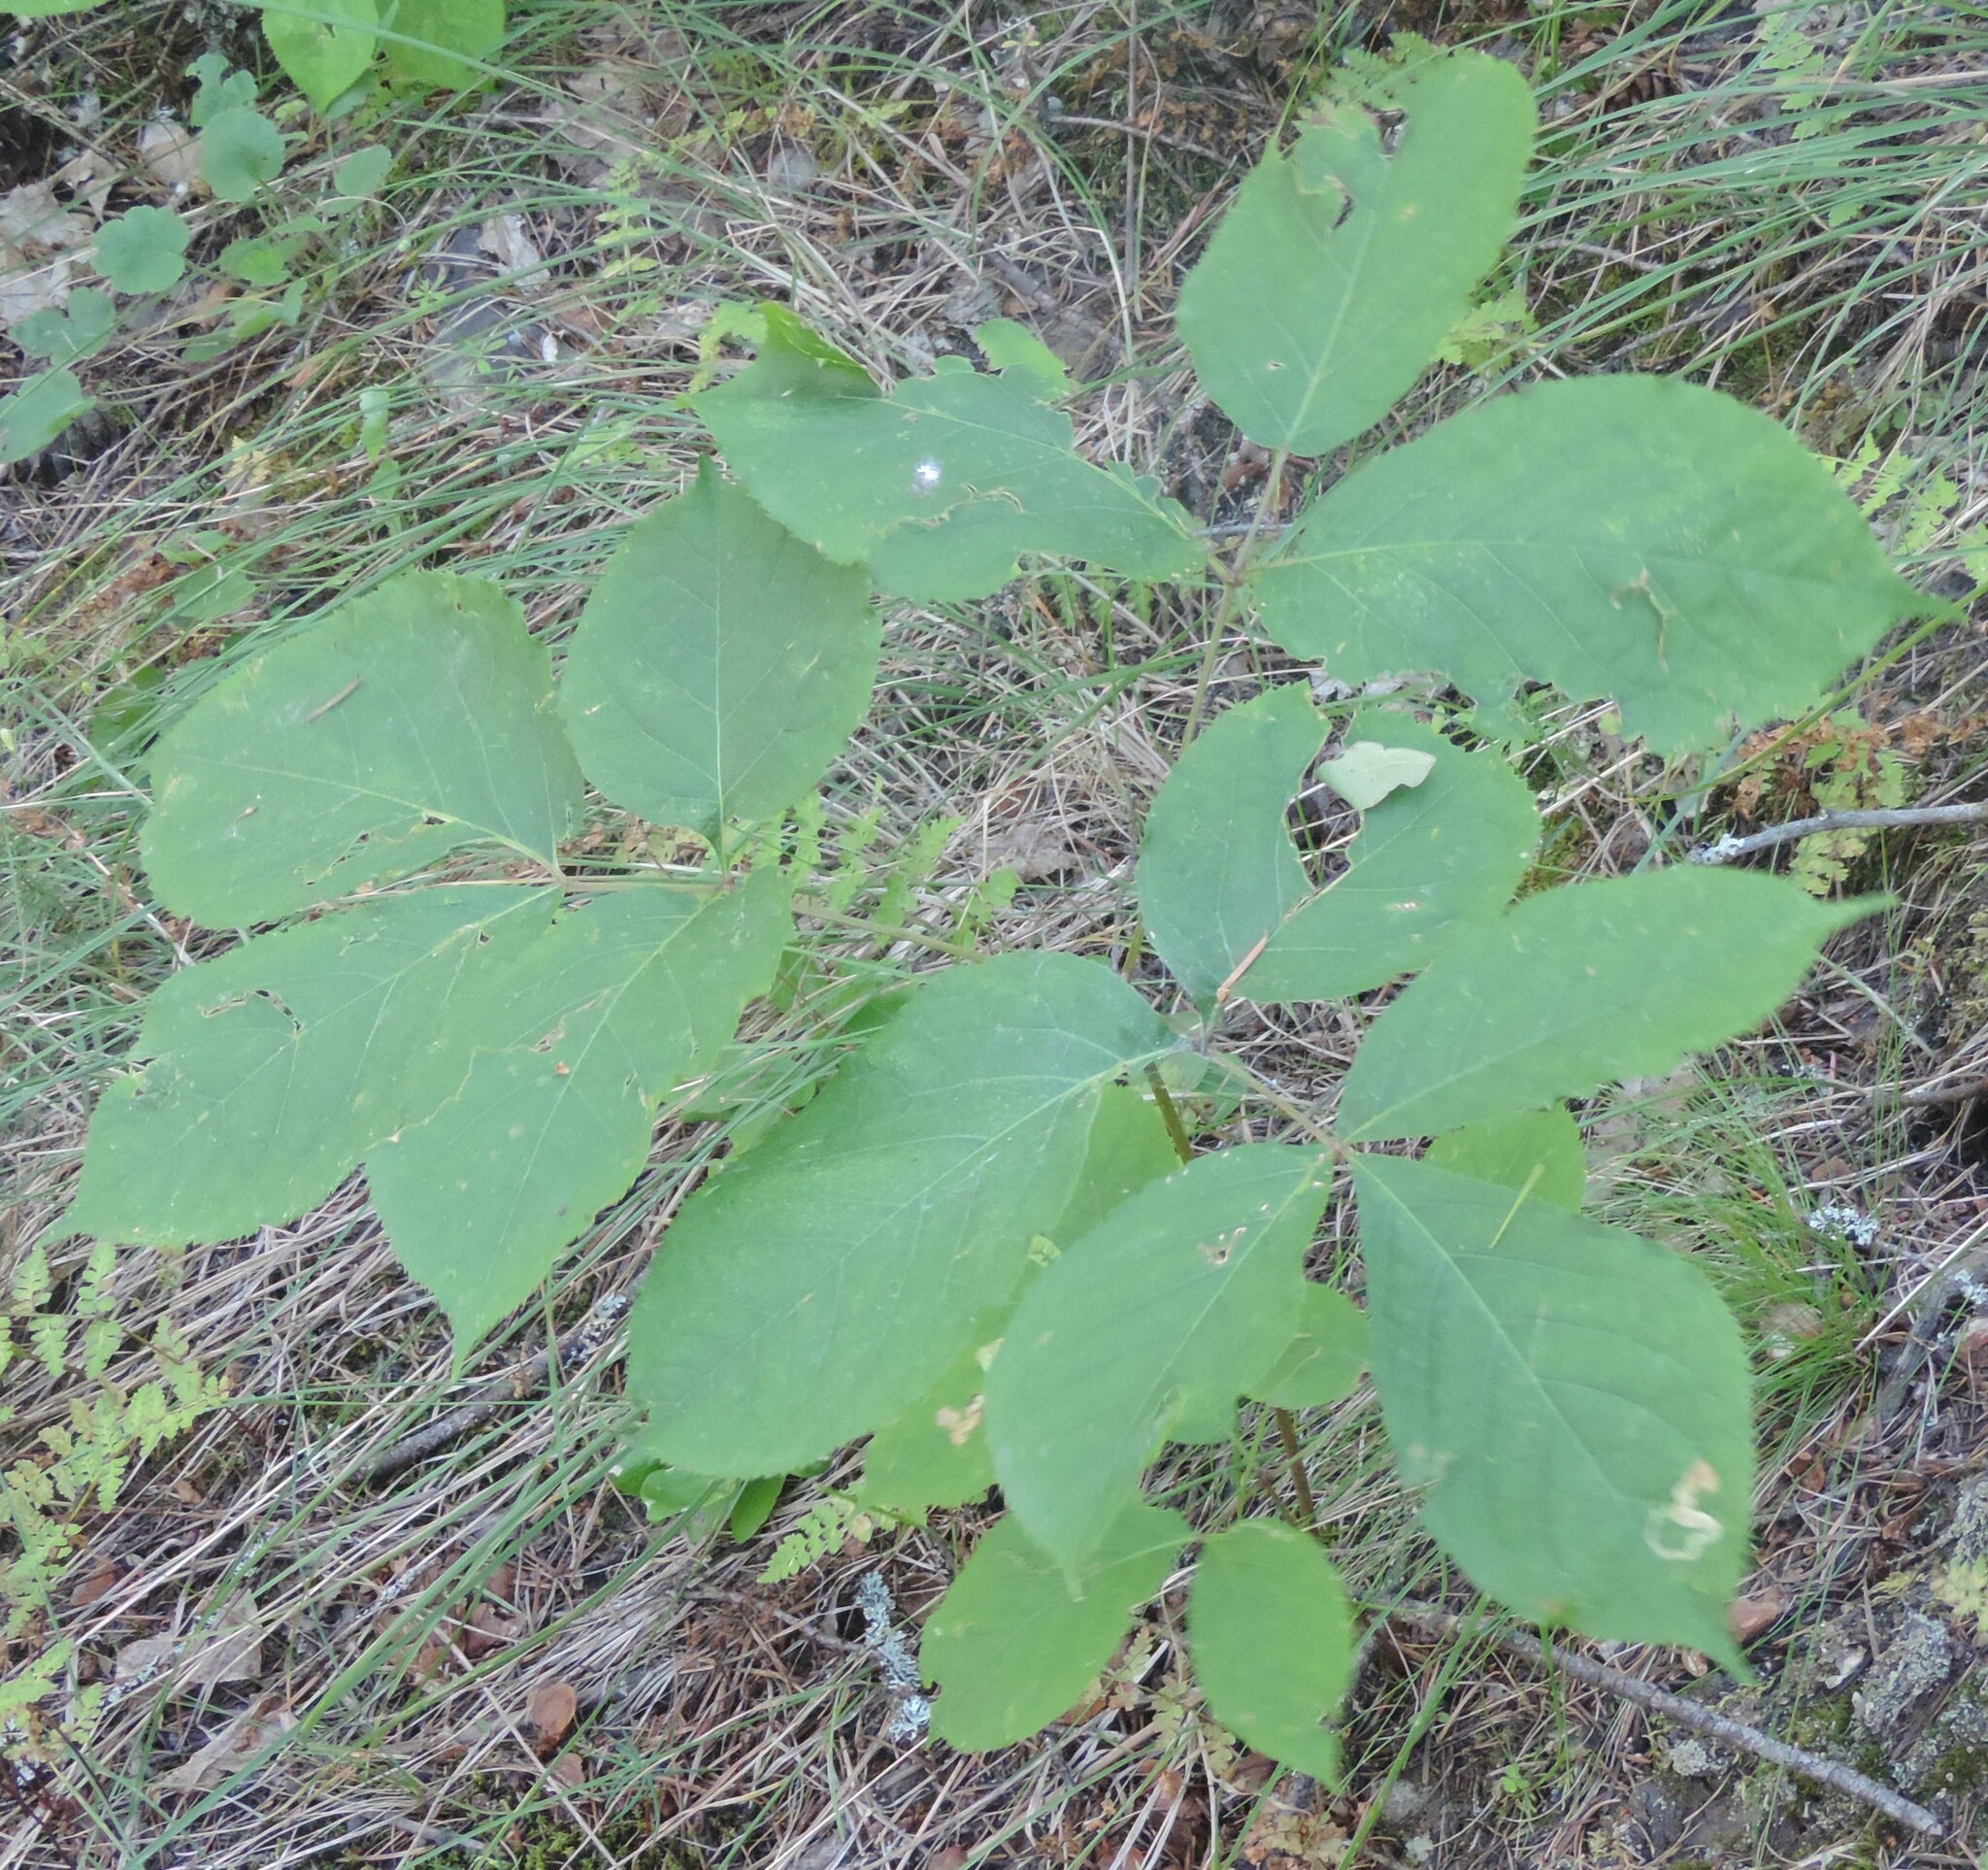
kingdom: Plantae
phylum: Tracheophyta
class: Magnoliopsida
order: Apiales
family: Araliaceae
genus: Aralia
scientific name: Aralia nudicaulis
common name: Wild sarsaparilla
